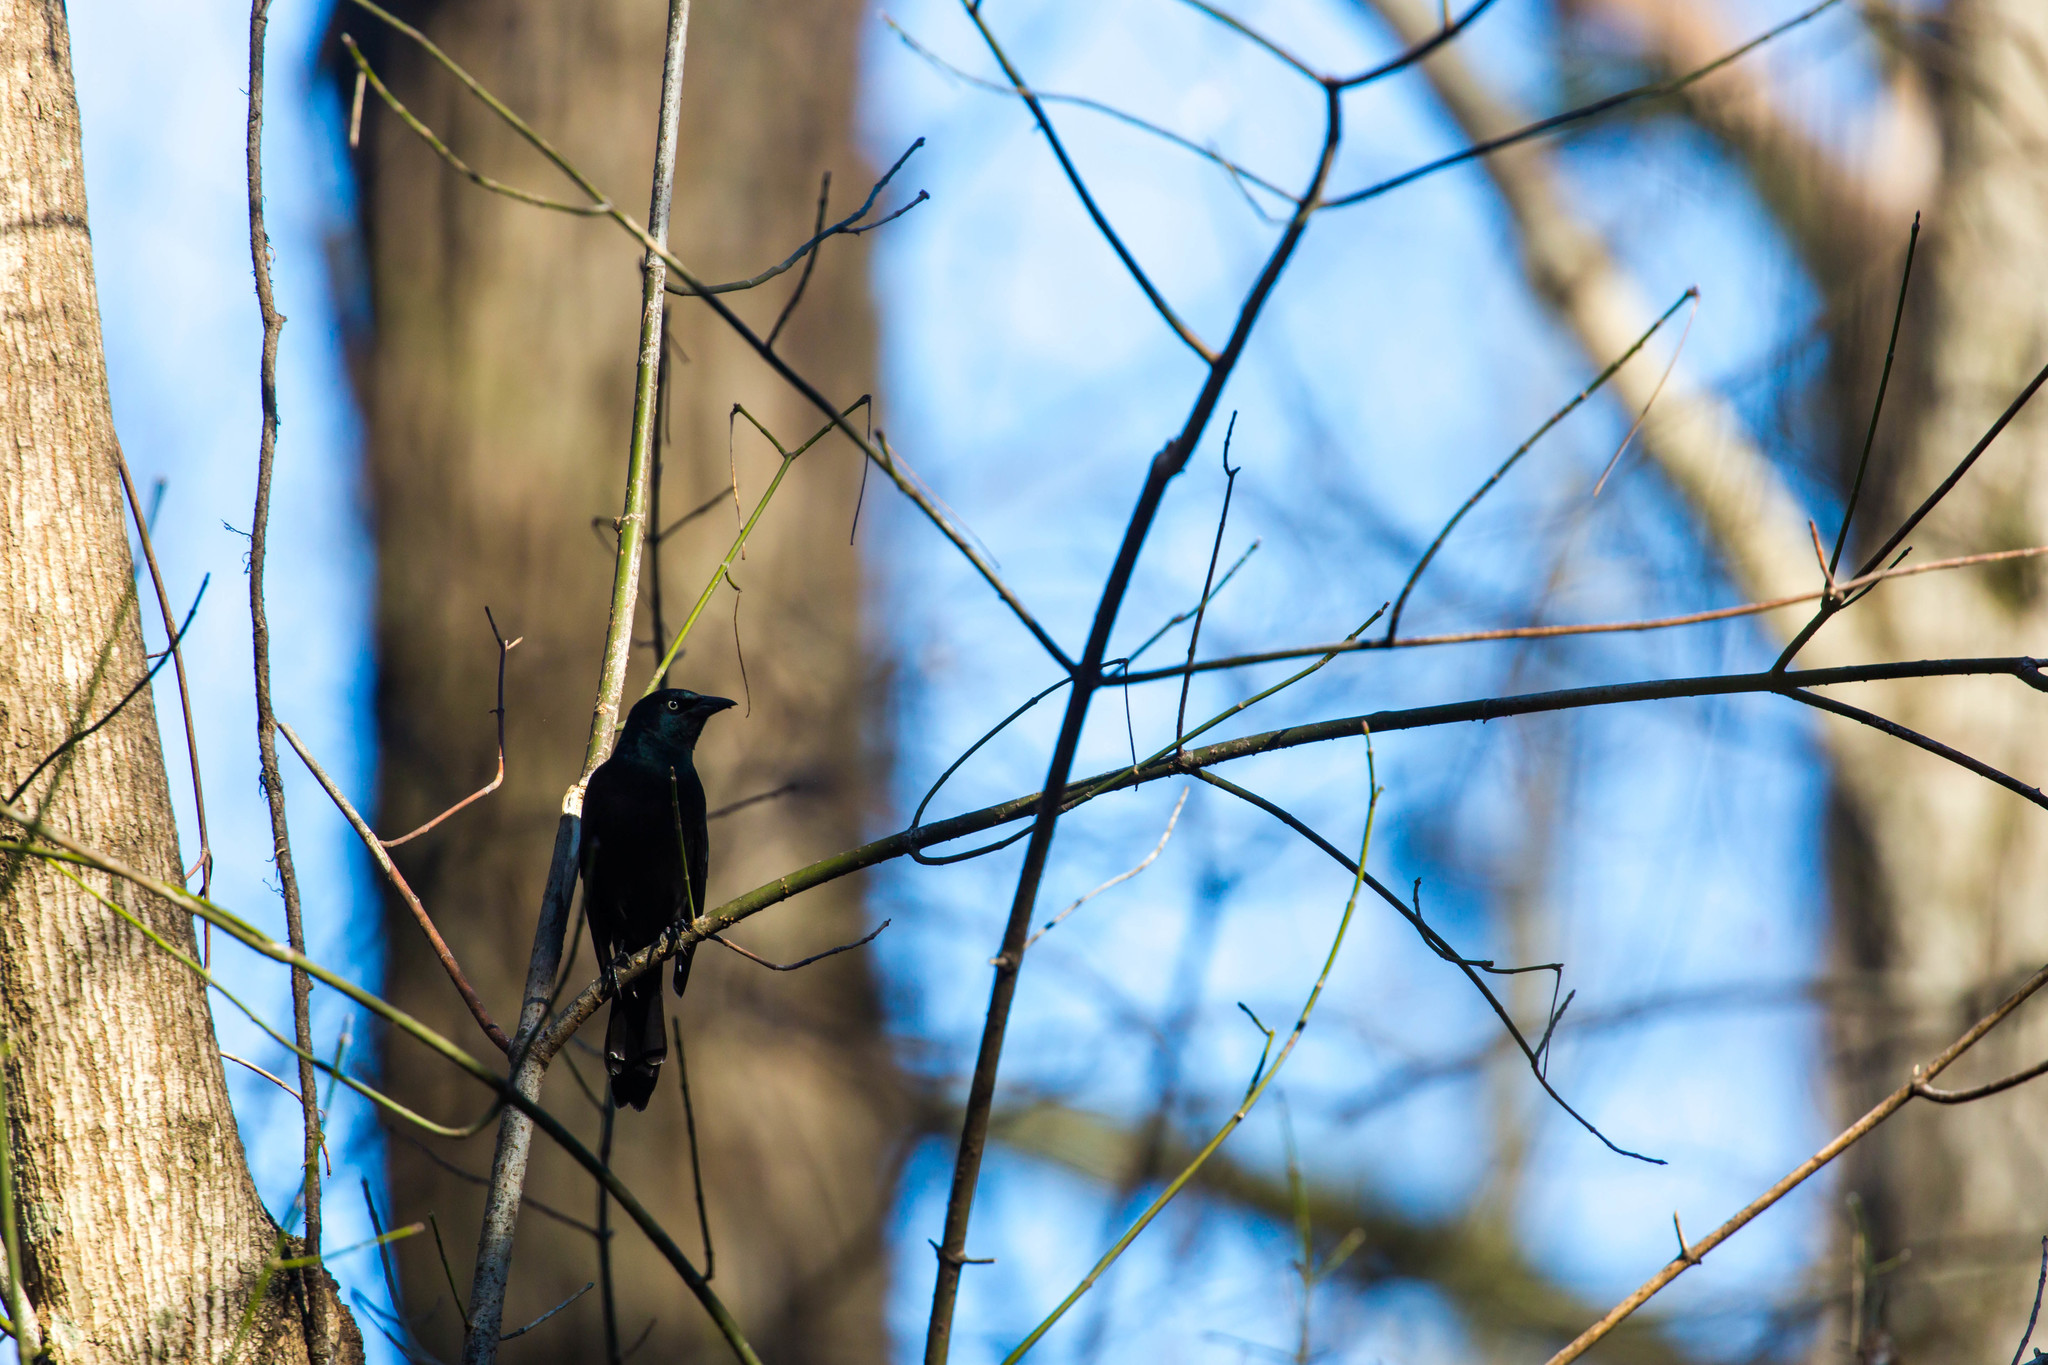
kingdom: Animalia
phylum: Chordata
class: Aves
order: Passeriformes
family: Icteridae
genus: Quiscalus
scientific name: Quiscalus quiscula
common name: Common grackle
